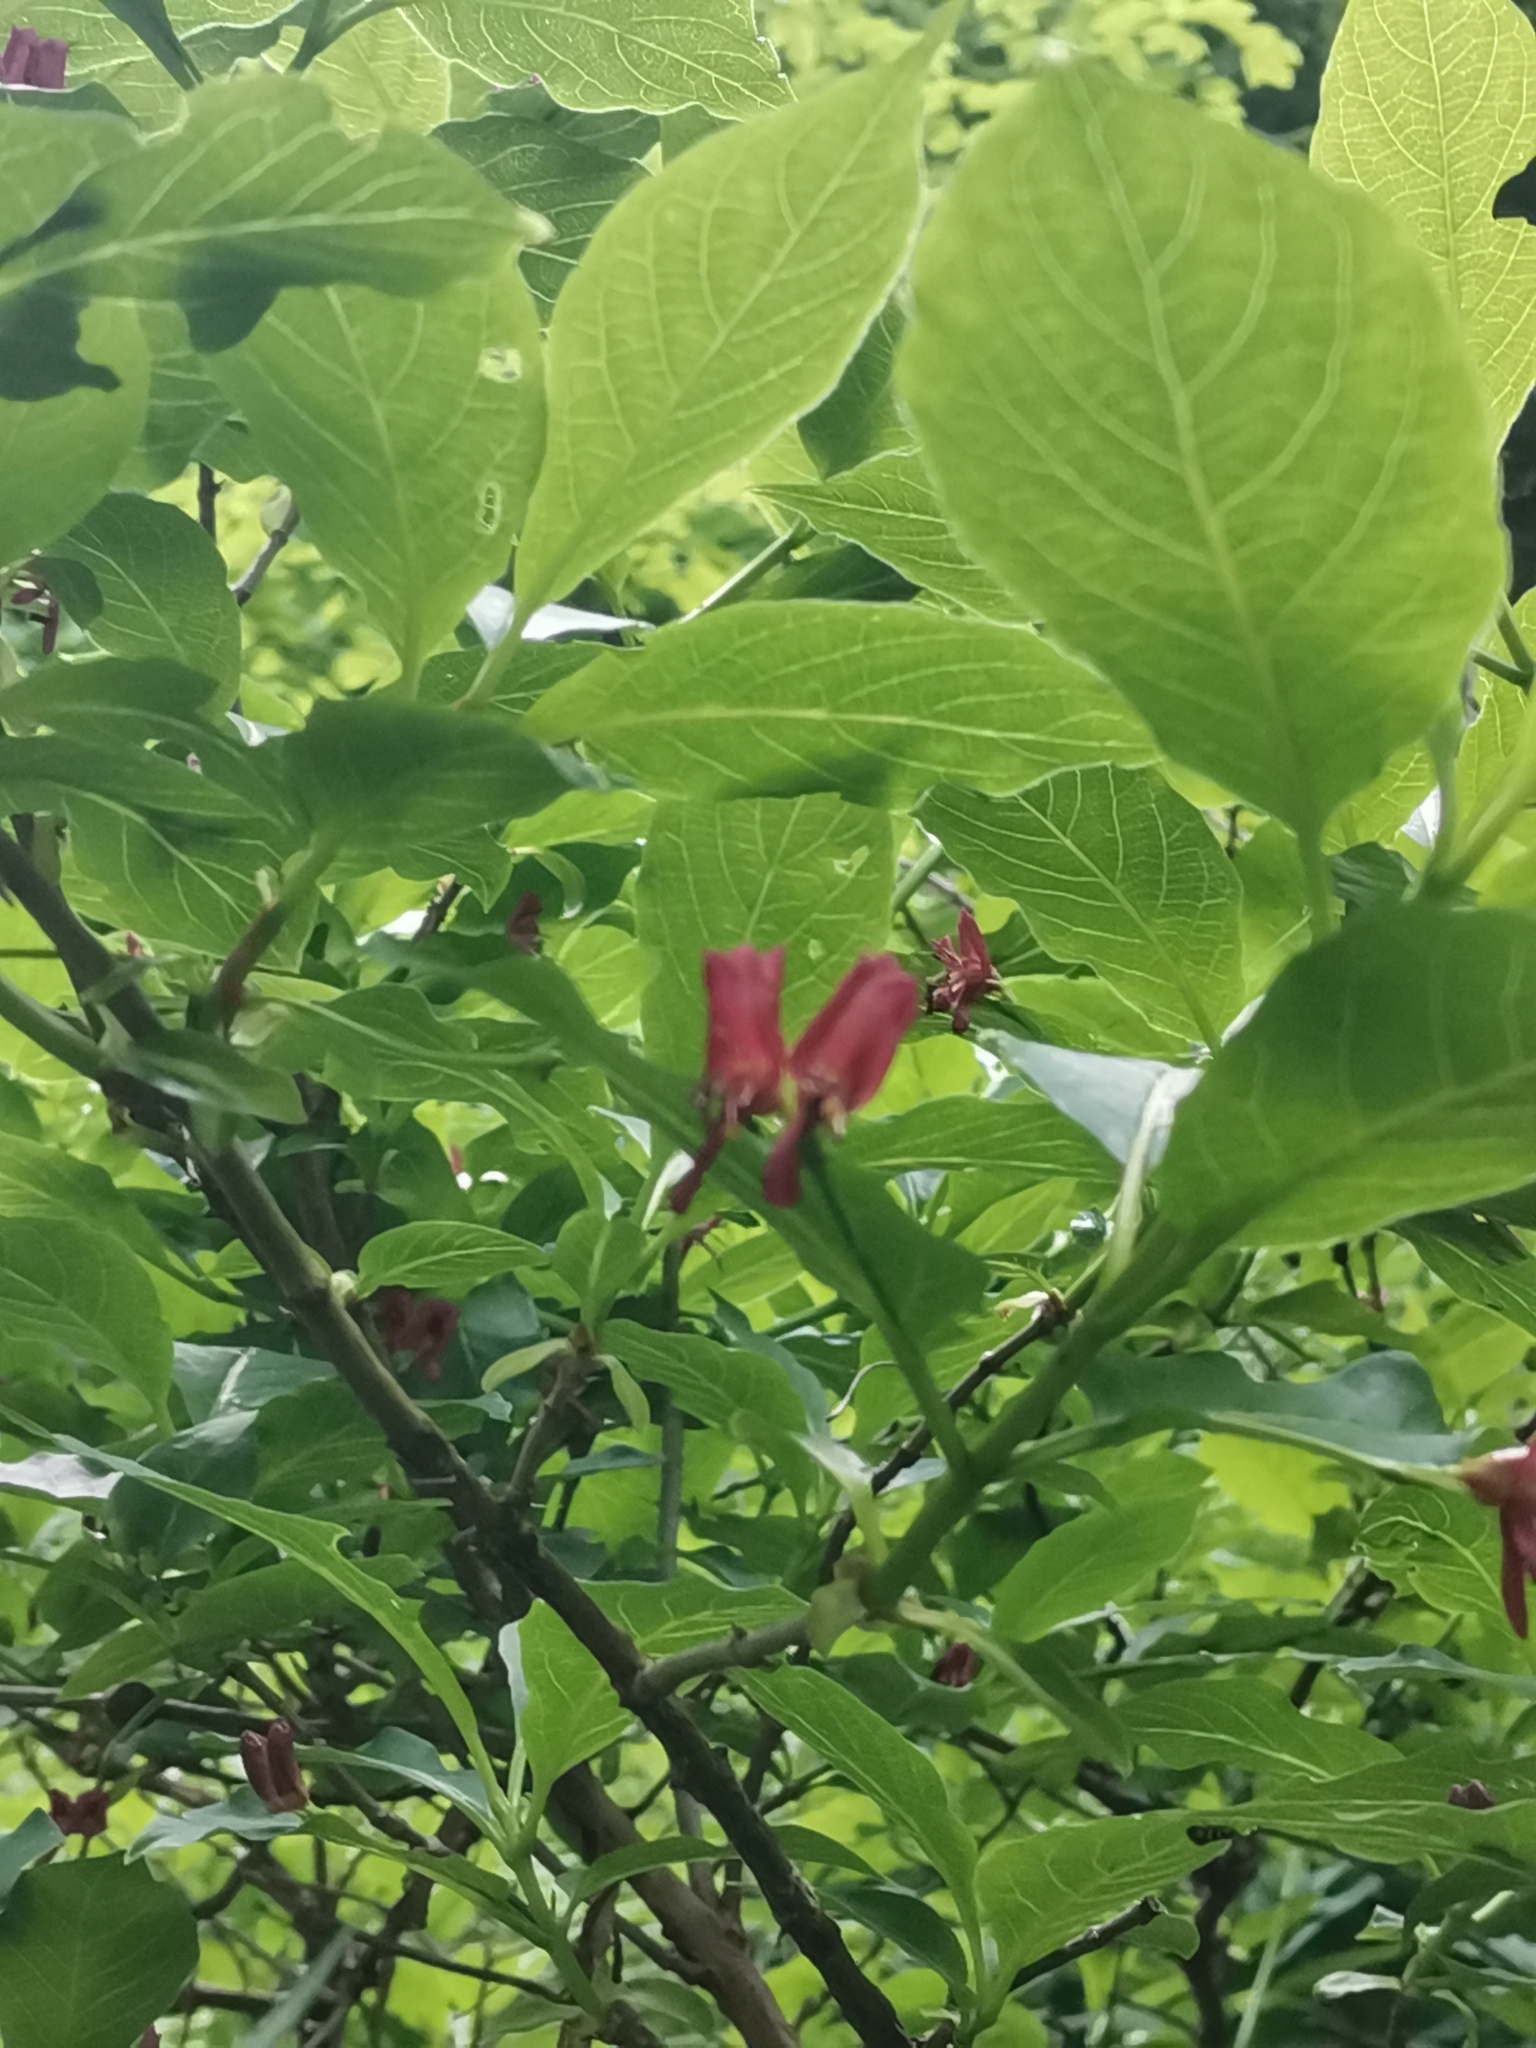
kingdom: Plantae
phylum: Tracheophyta
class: Magnoliopsida
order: Dipsacales
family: Caprifoliaceae
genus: Lonicera
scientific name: Lonicera alpigena
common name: Alpine honeysuckle
